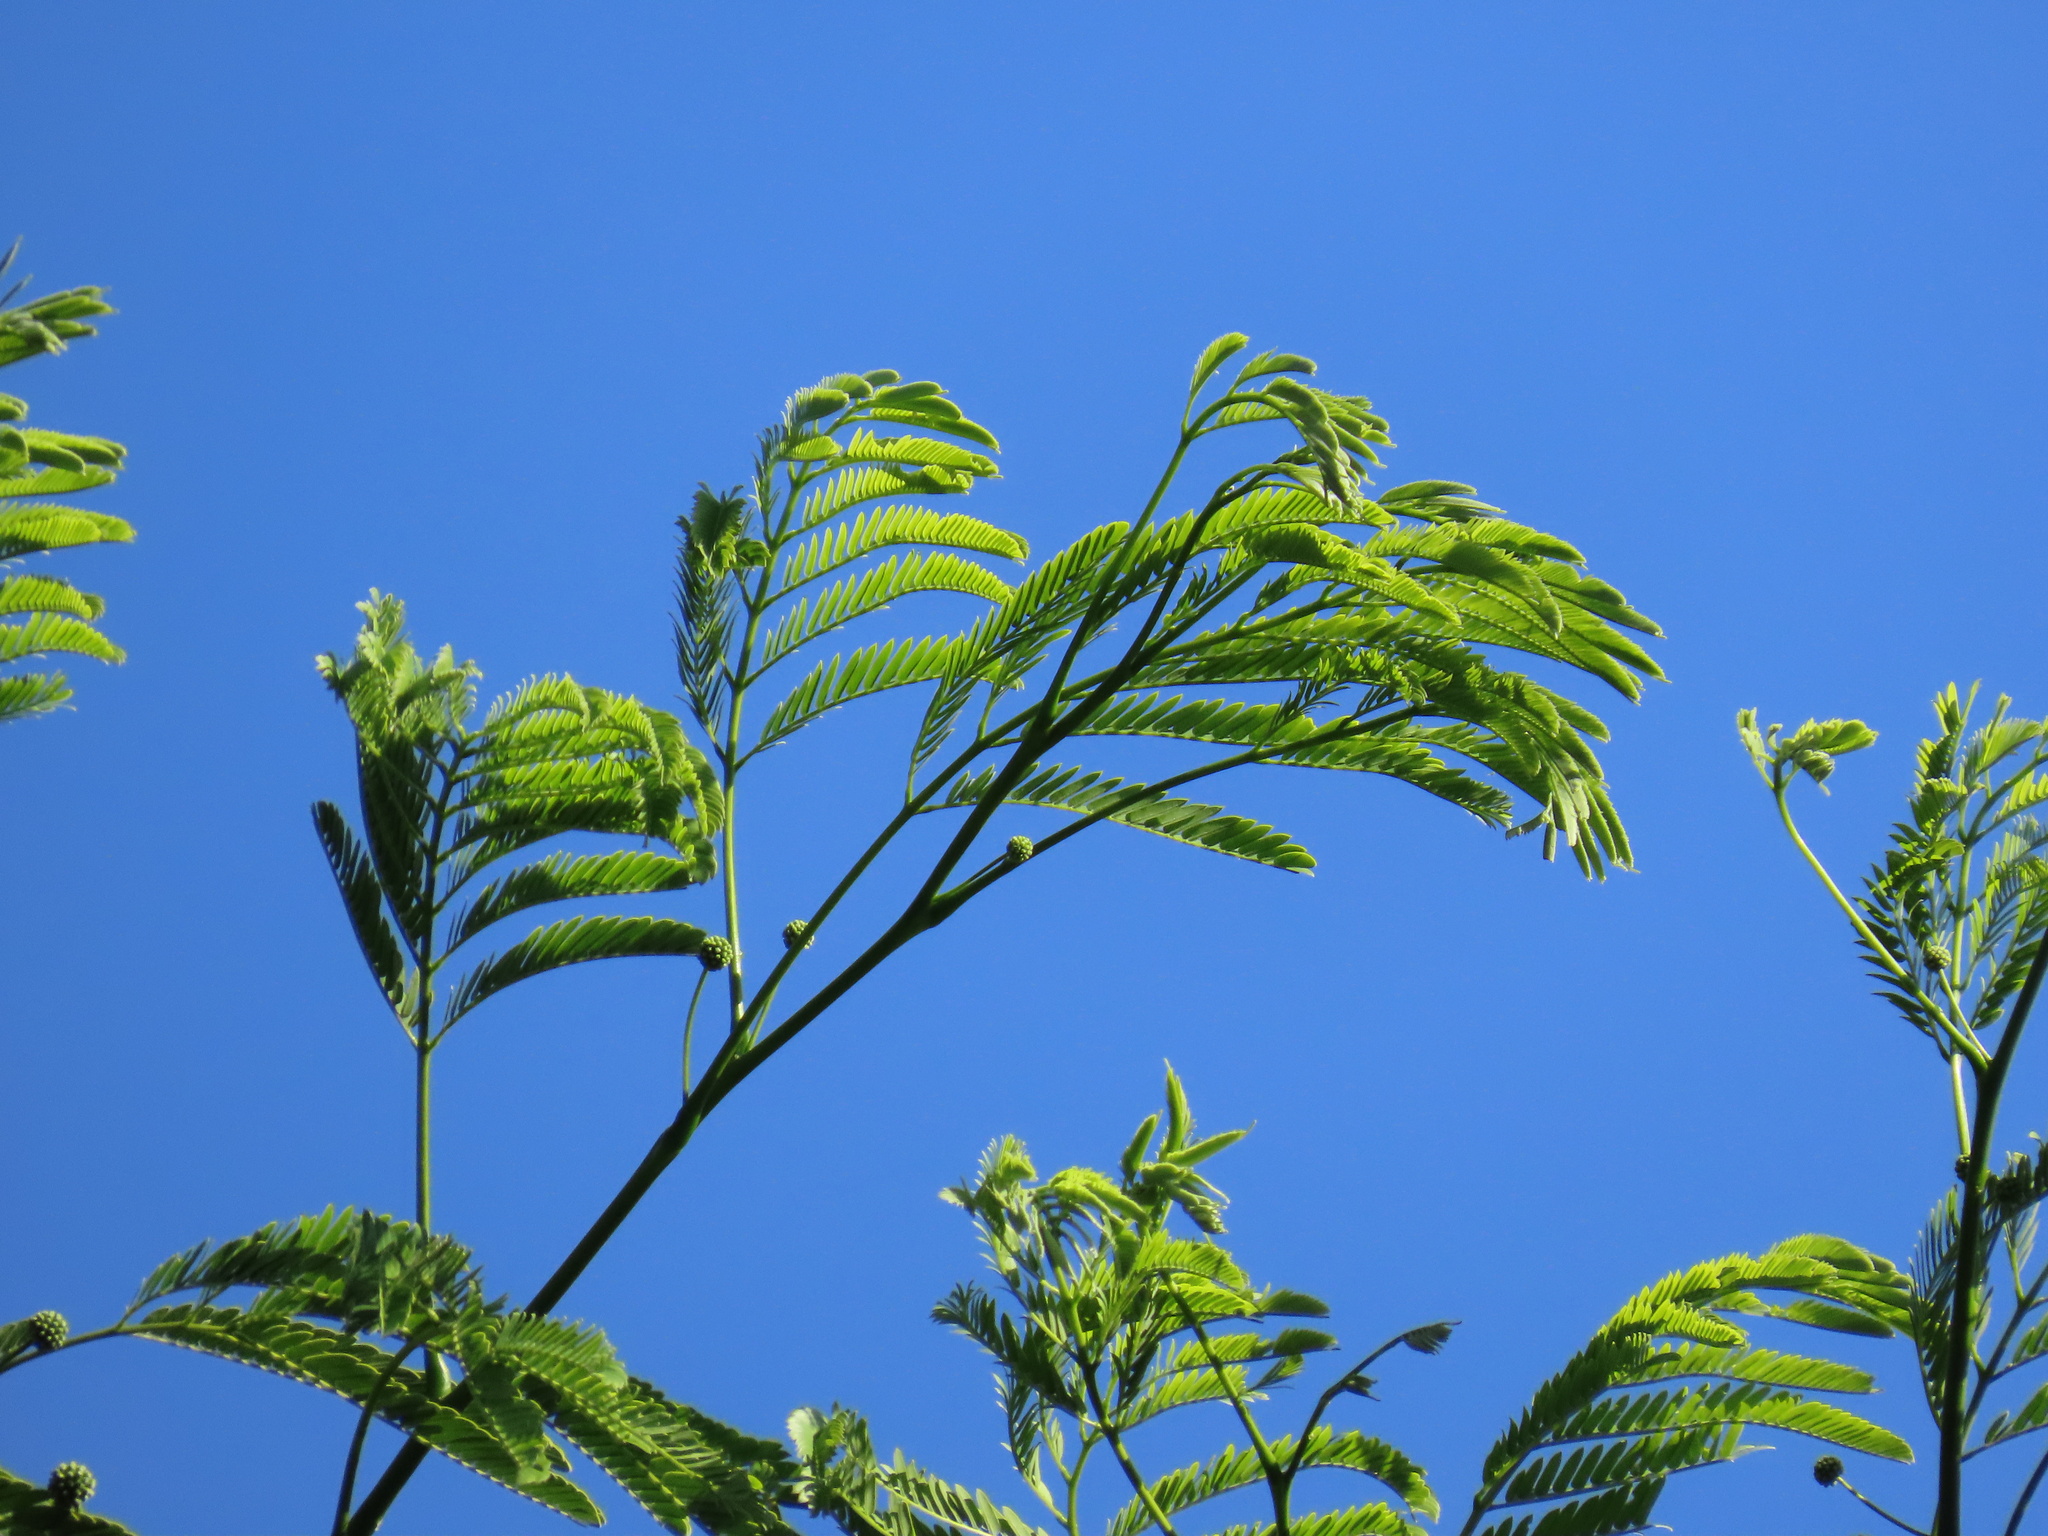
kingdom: Plantae
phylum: Tracheophyta
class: Magnoliopsida
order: Fabales
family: Fabaceae
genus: Enterolobium
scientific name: Enterolobium cyclocarpum
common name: Ear tree
